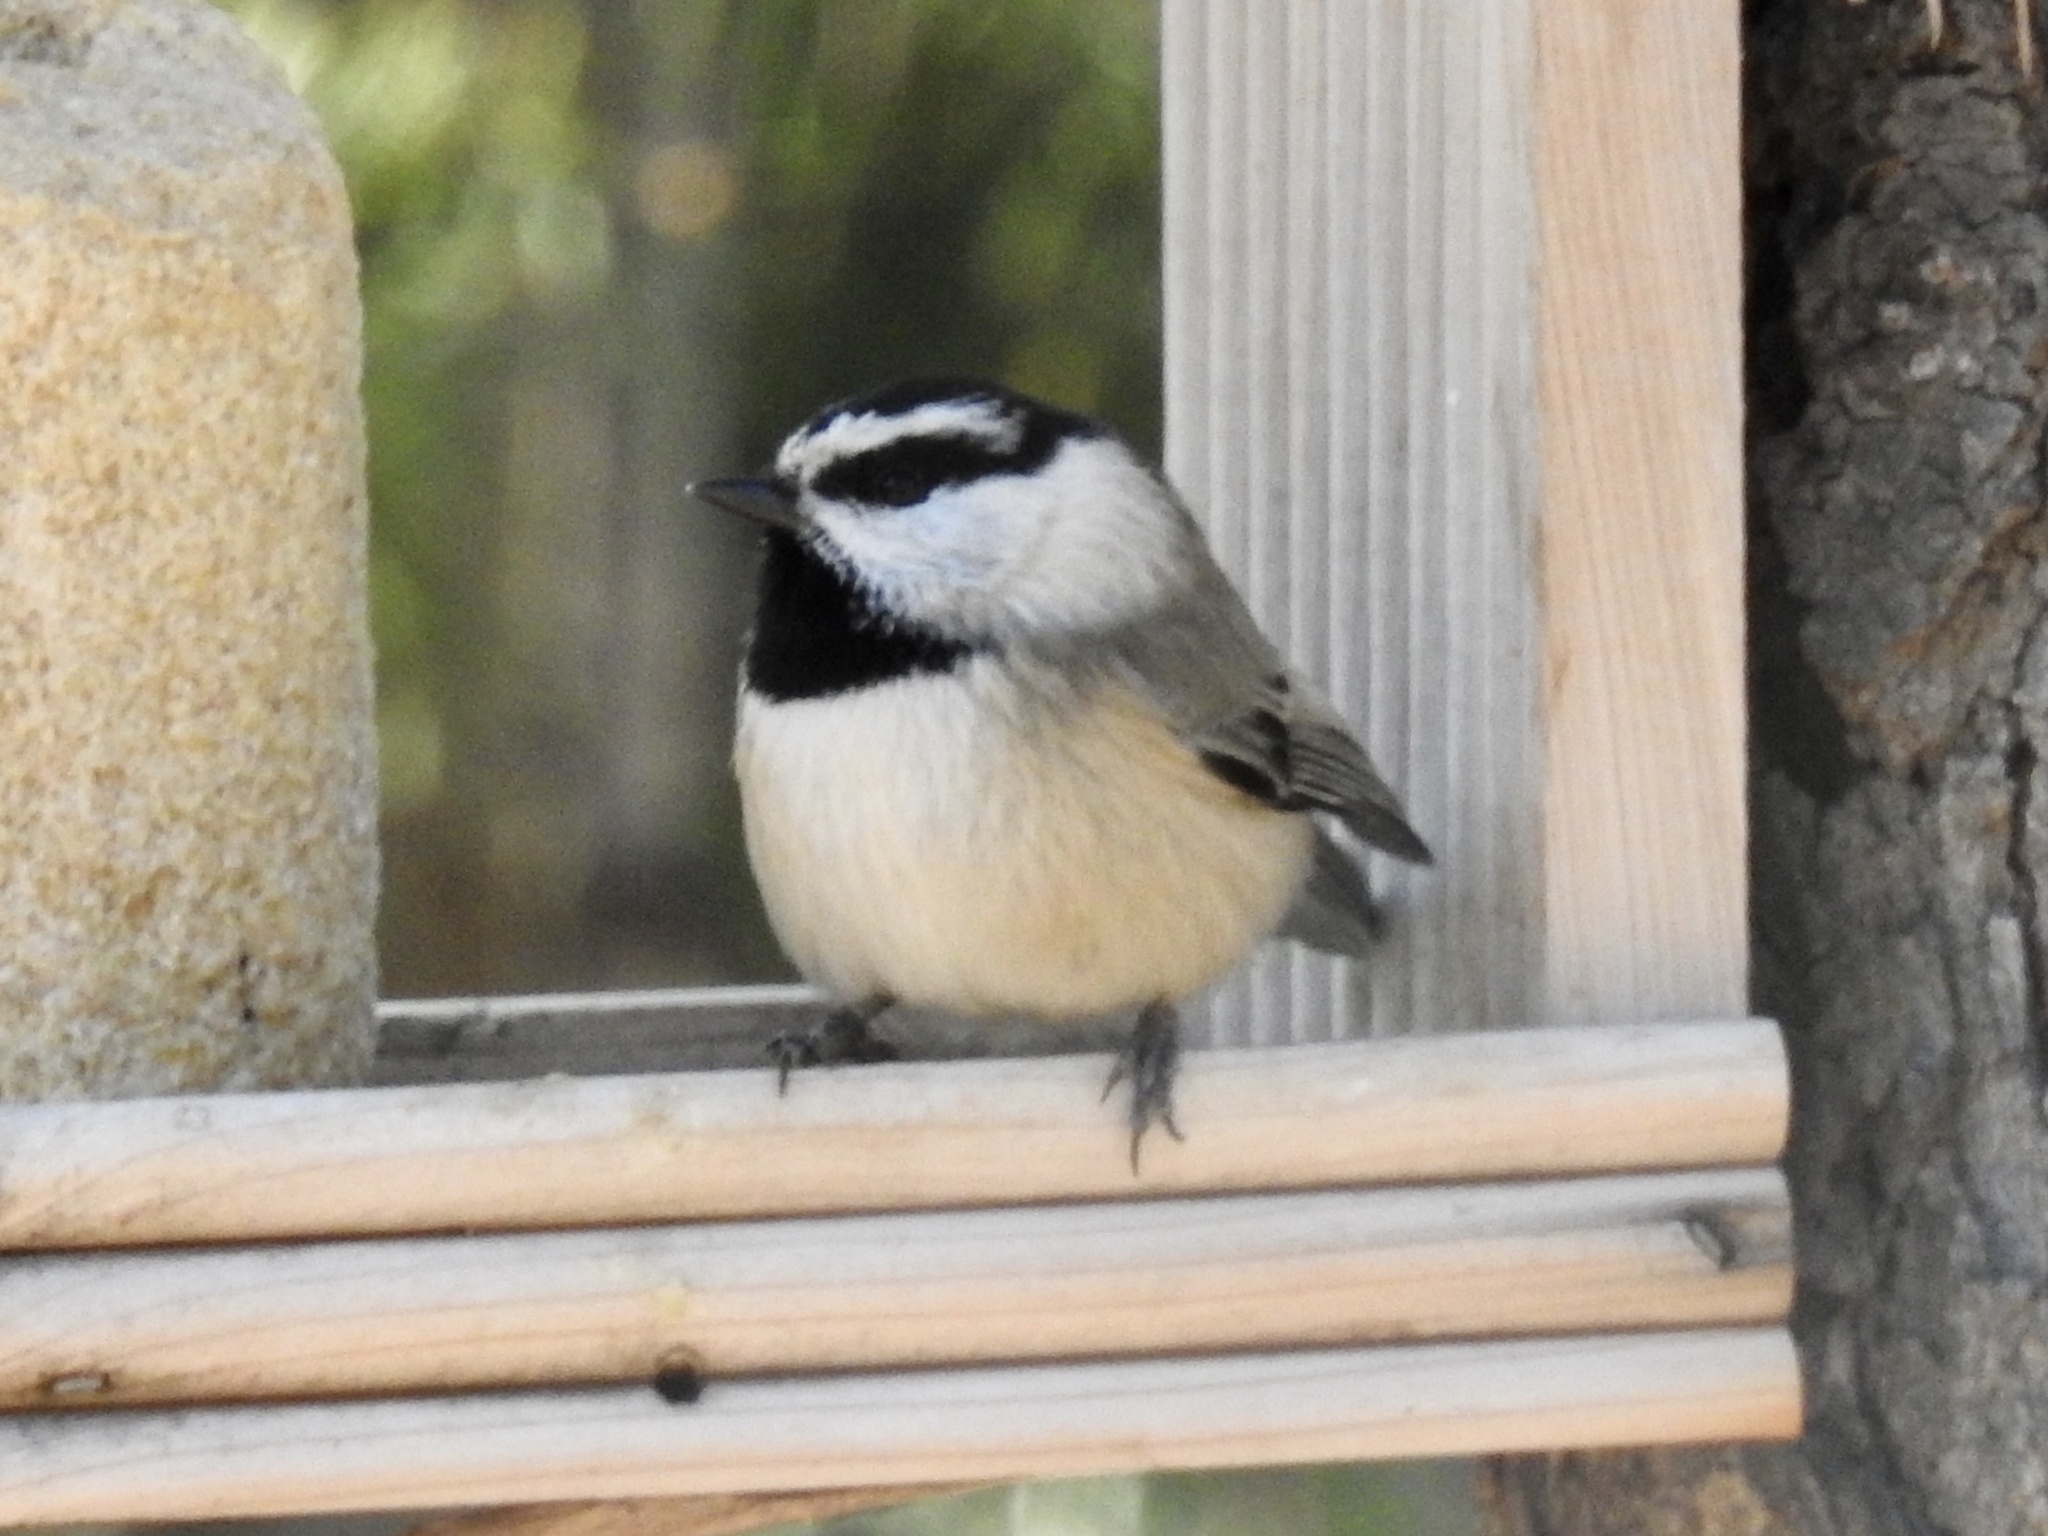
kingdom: Animalia
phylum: Chordata
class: Aves
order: Passeriformes
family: Paridae
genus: Poecile
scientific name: Poecile gambeli
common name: Mountain chickadee
